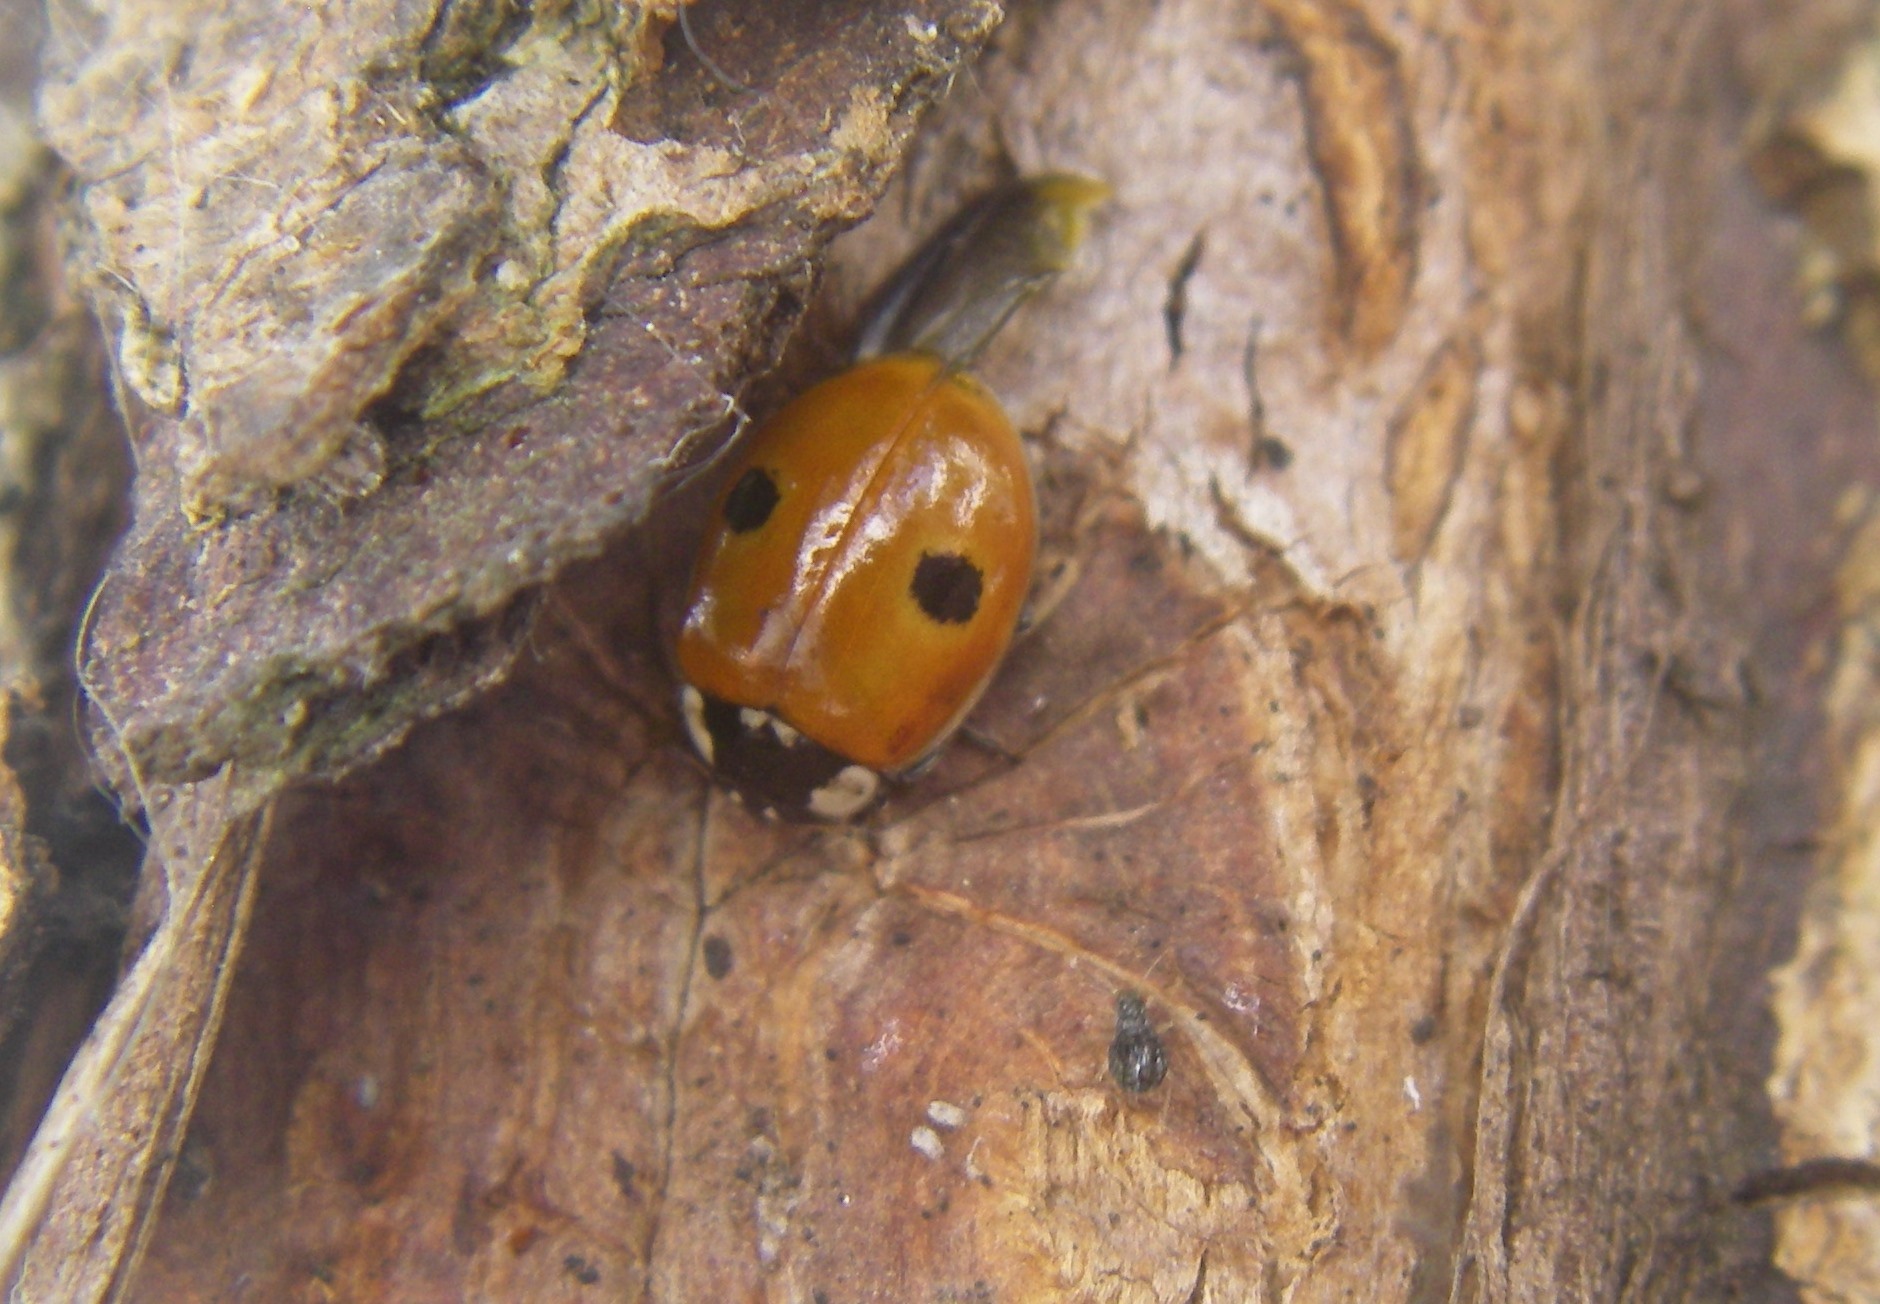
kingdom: Animalia
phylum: Arthropoda
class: Insecta
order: Coleoptera
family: Coccinellidae
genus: Adalia
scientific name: Adalia bipunctata
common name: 2-spot ladybird
